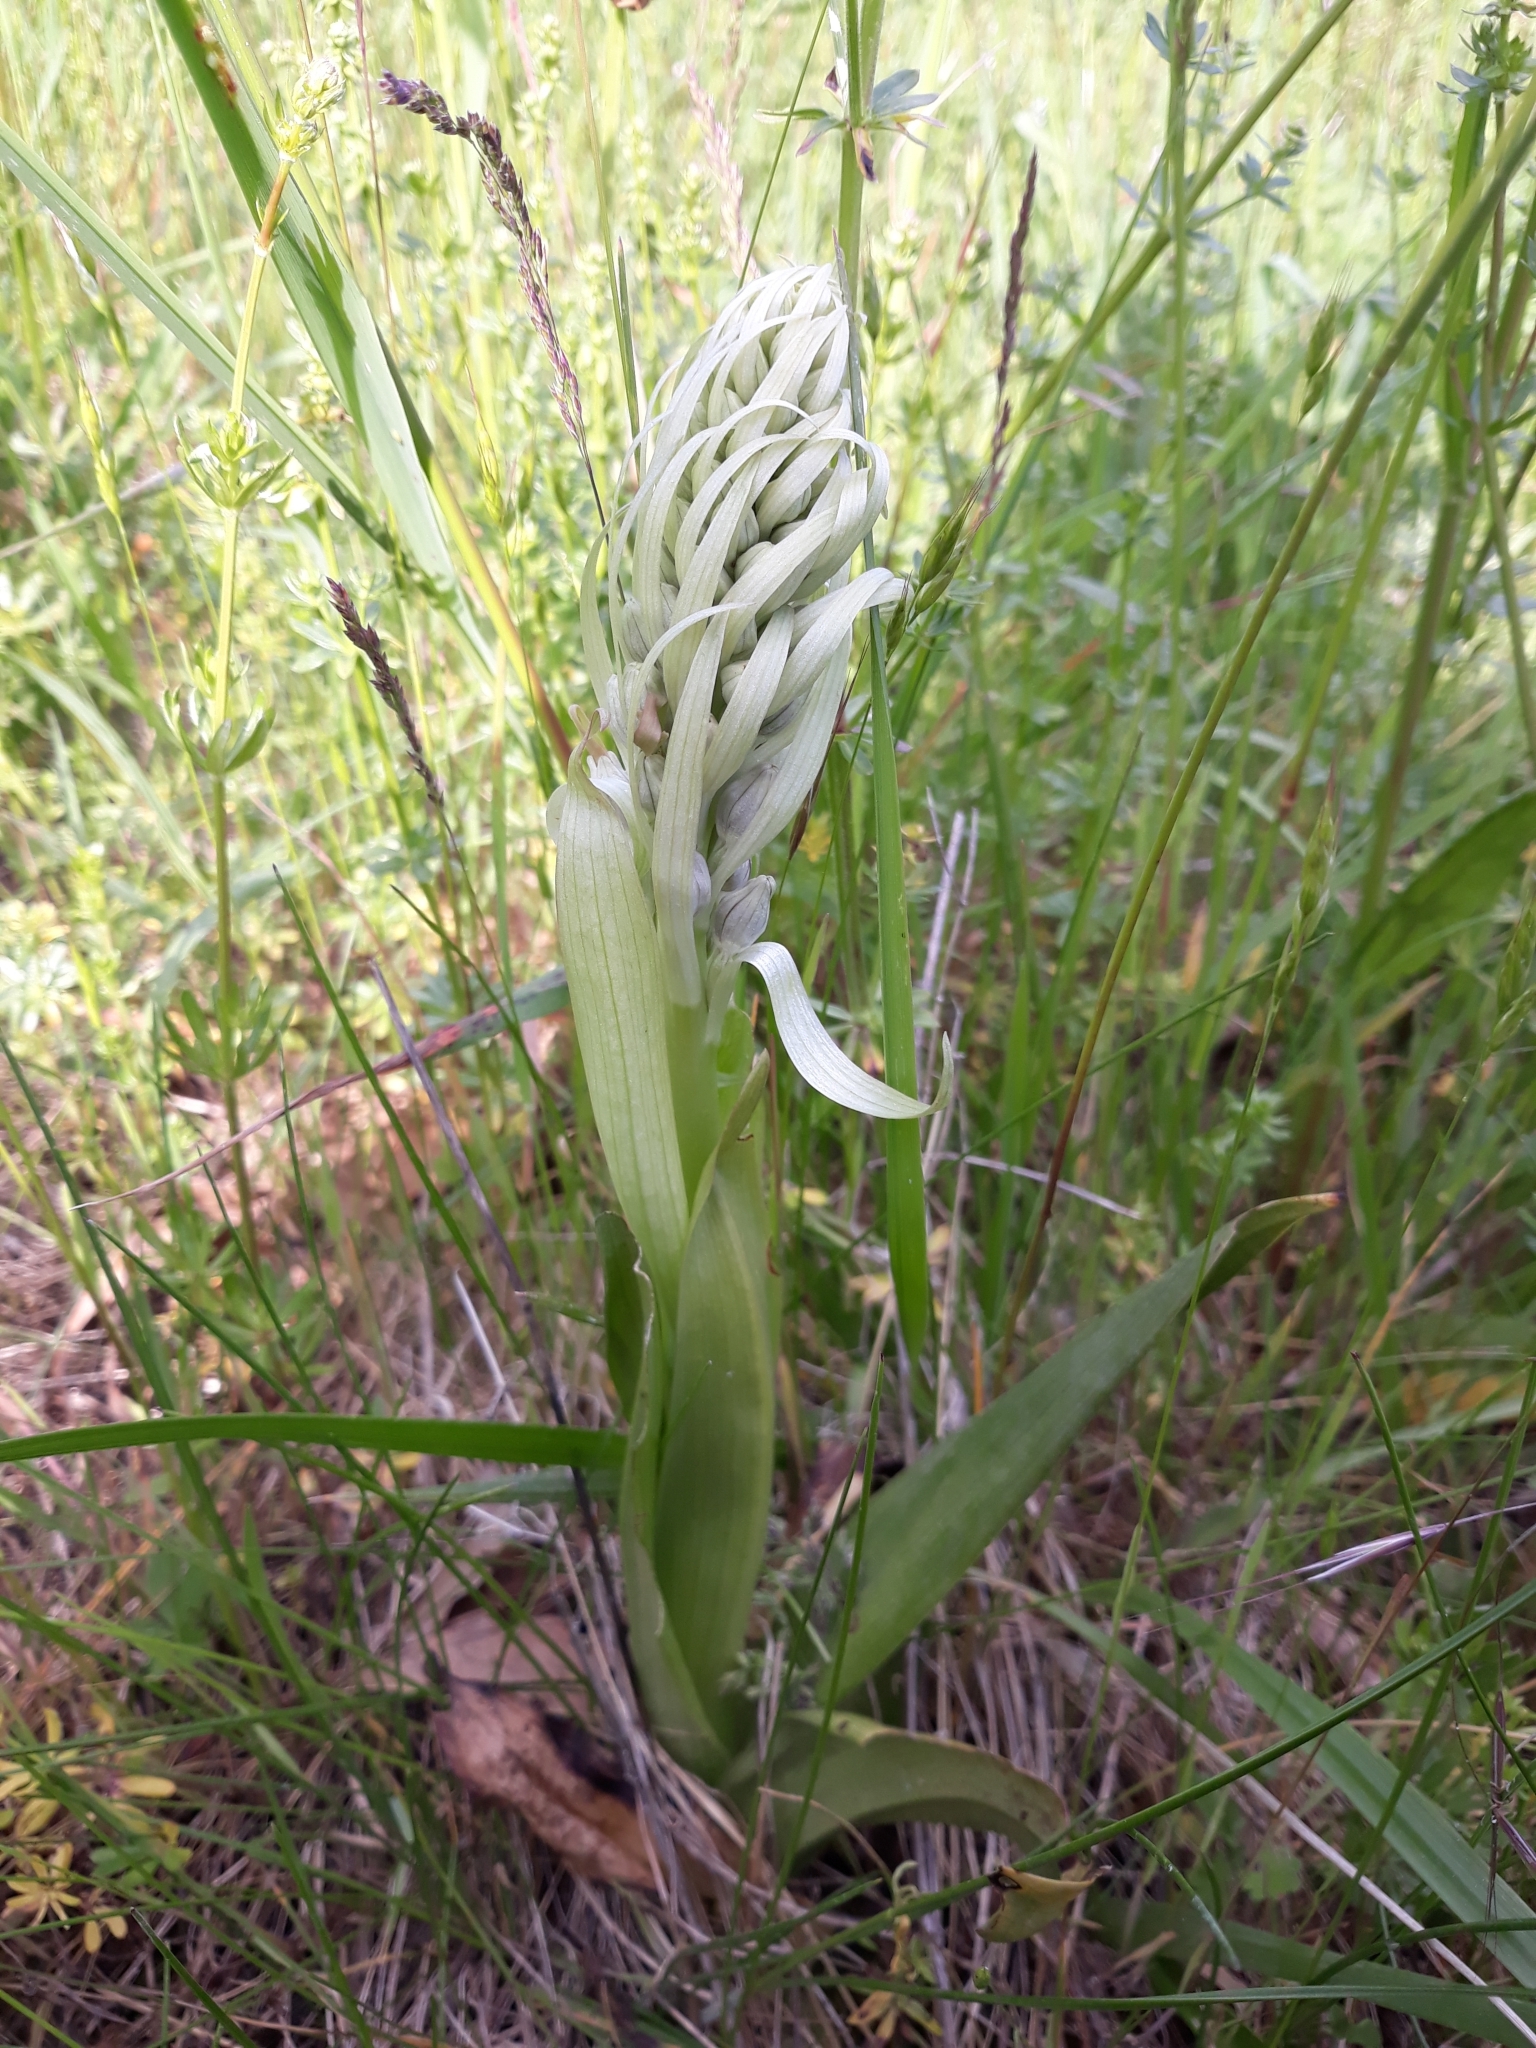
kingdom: Plantae
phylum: Tracheophyta
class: Liliopsida
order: Asparagales
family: Orchidaceae
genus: Himantoglossum
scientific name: Himantoglossum hircinum
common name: Lizard orchid
